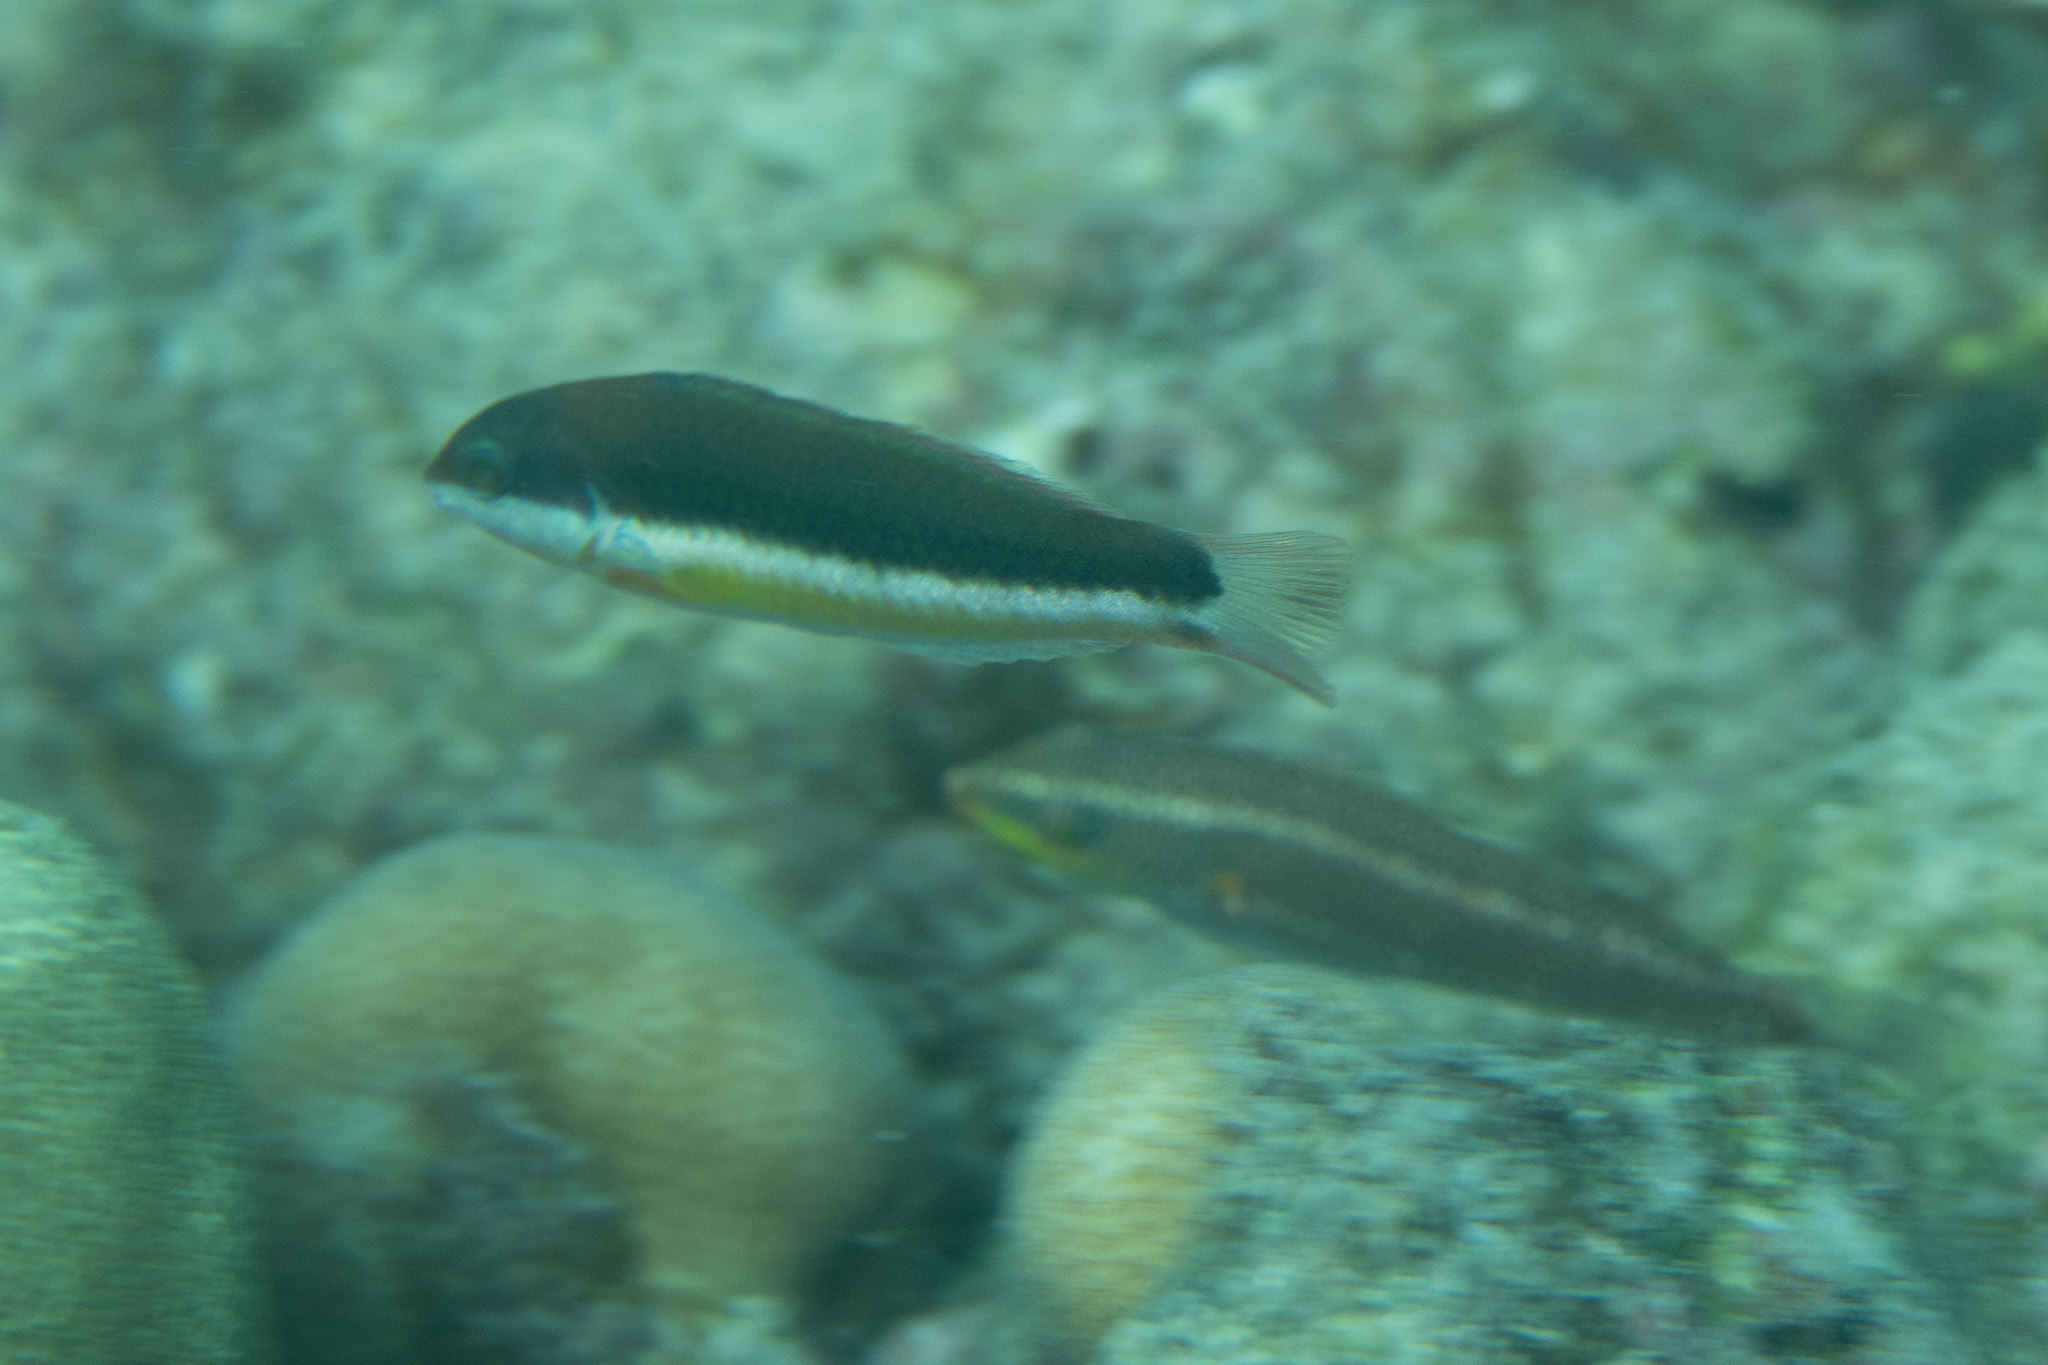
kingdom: Animalia
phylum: Chordata
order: Perciformes
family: Labridae
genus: Thalassoma
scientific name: Thalassoma duperrey
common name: Saddle wrasse
